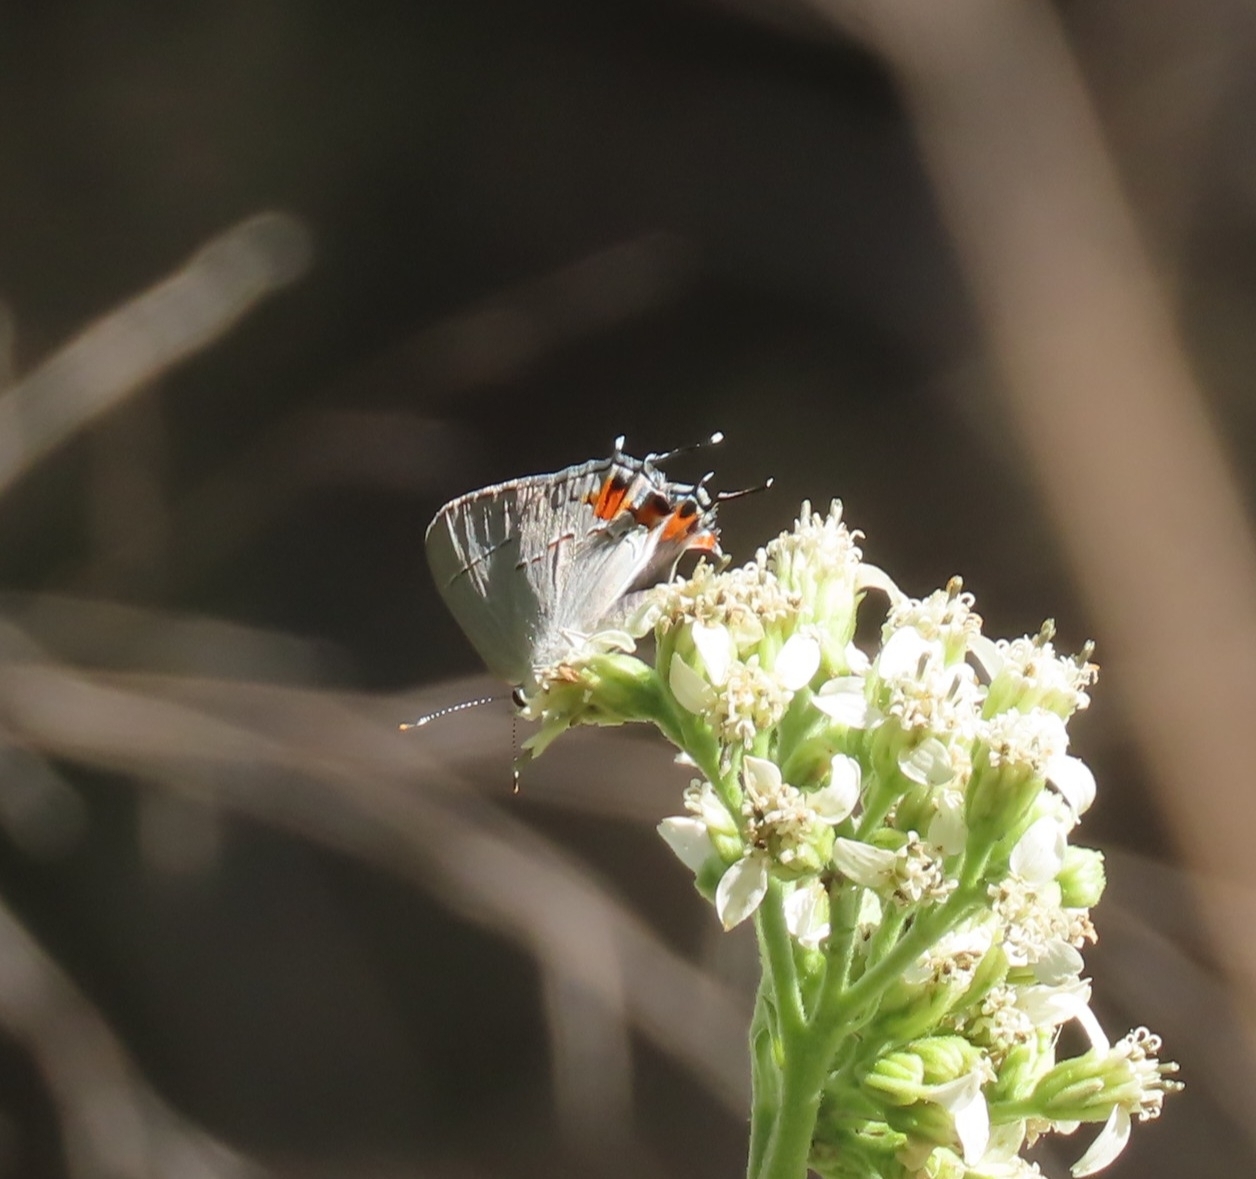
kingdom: Animalia
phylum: Arthropoda
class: Insecta
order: Lepidoptera
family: Lycaenidae
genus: Strymon
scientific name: Strymon melinus
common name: Gray hairstreak
